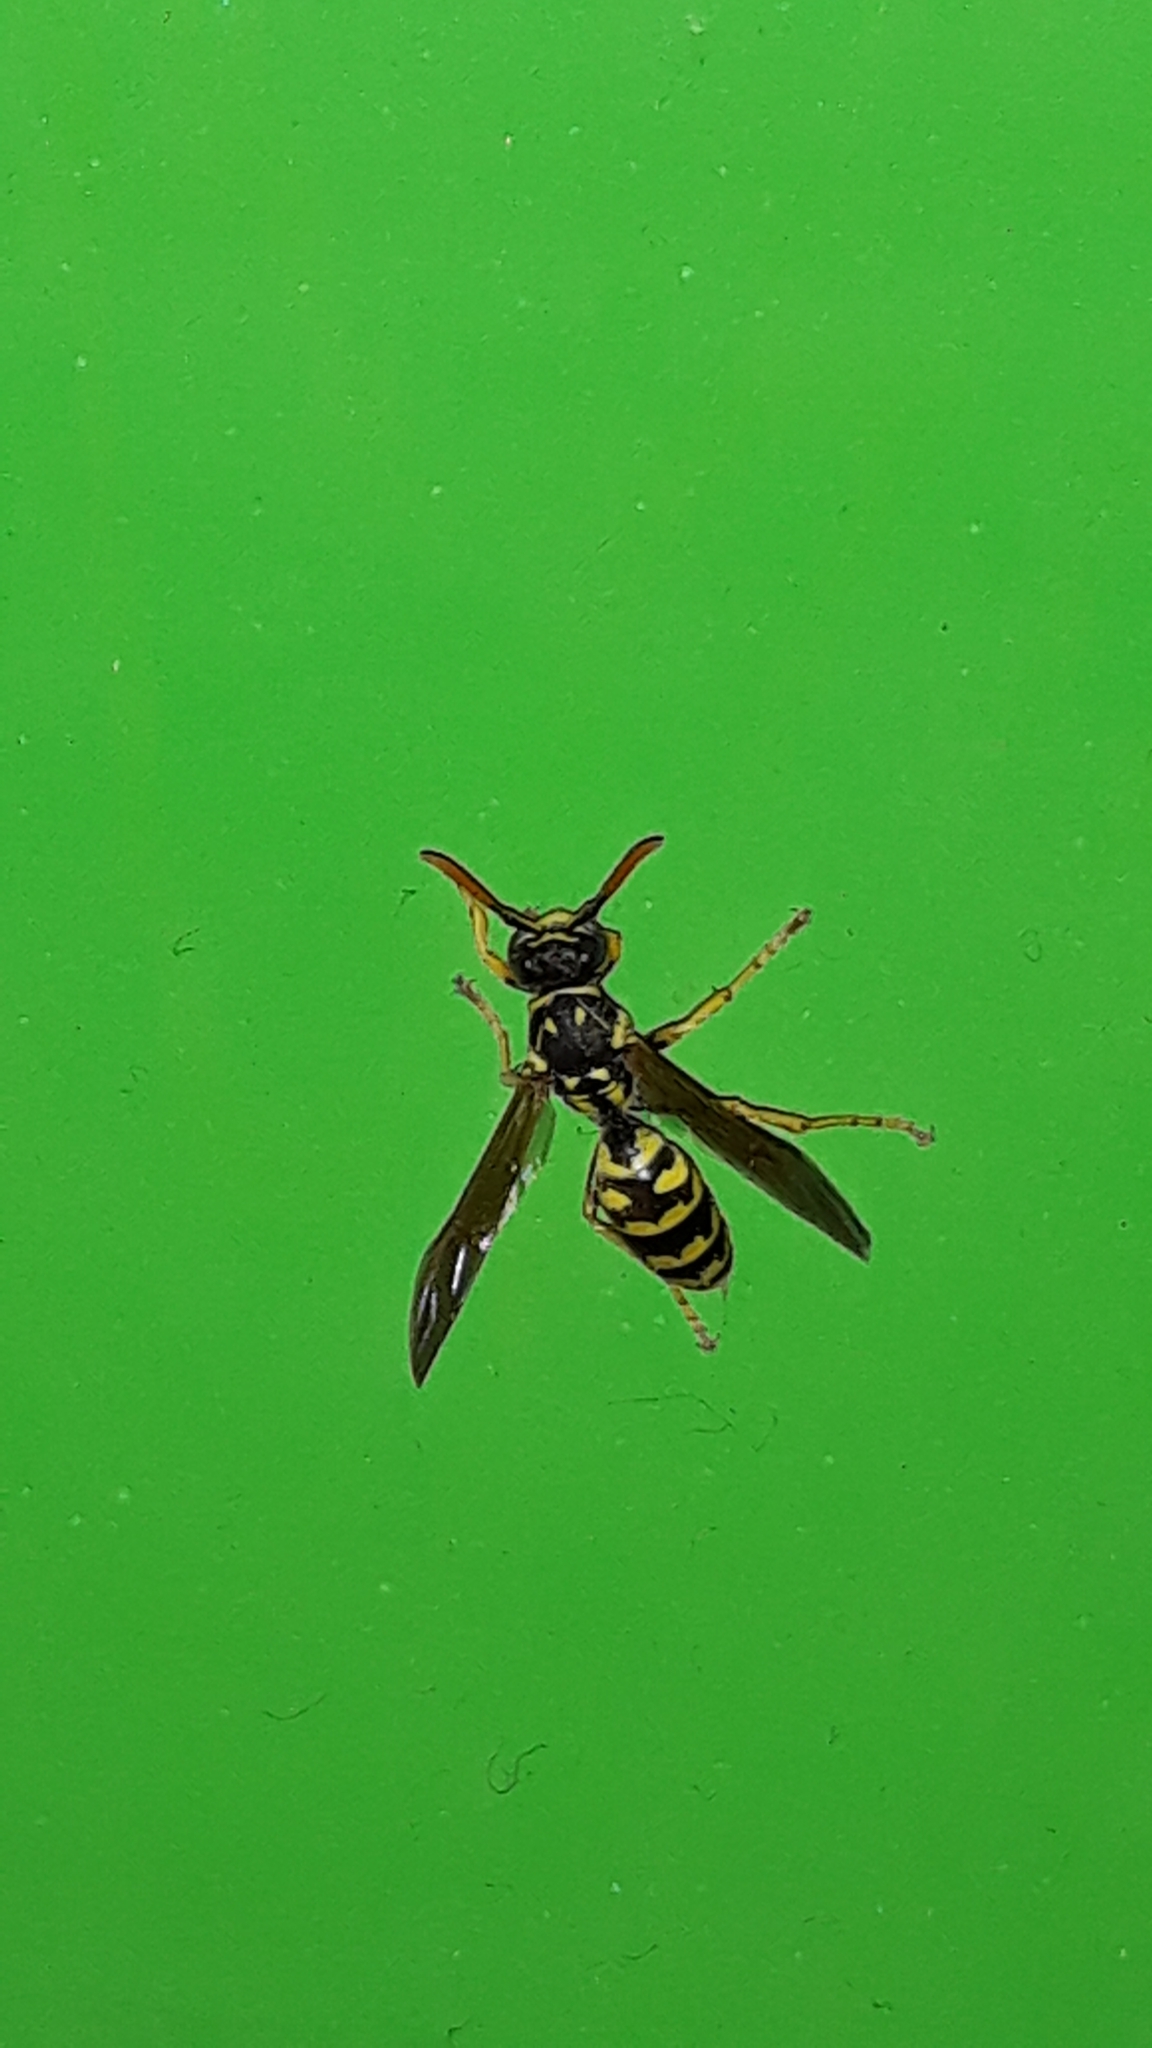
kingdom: Animalia
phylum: Arthropoda
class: Insecta
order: Hymenoptera
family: Eumenidae
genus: Polistes
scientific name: Polistes dominula
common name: Paper wasp
